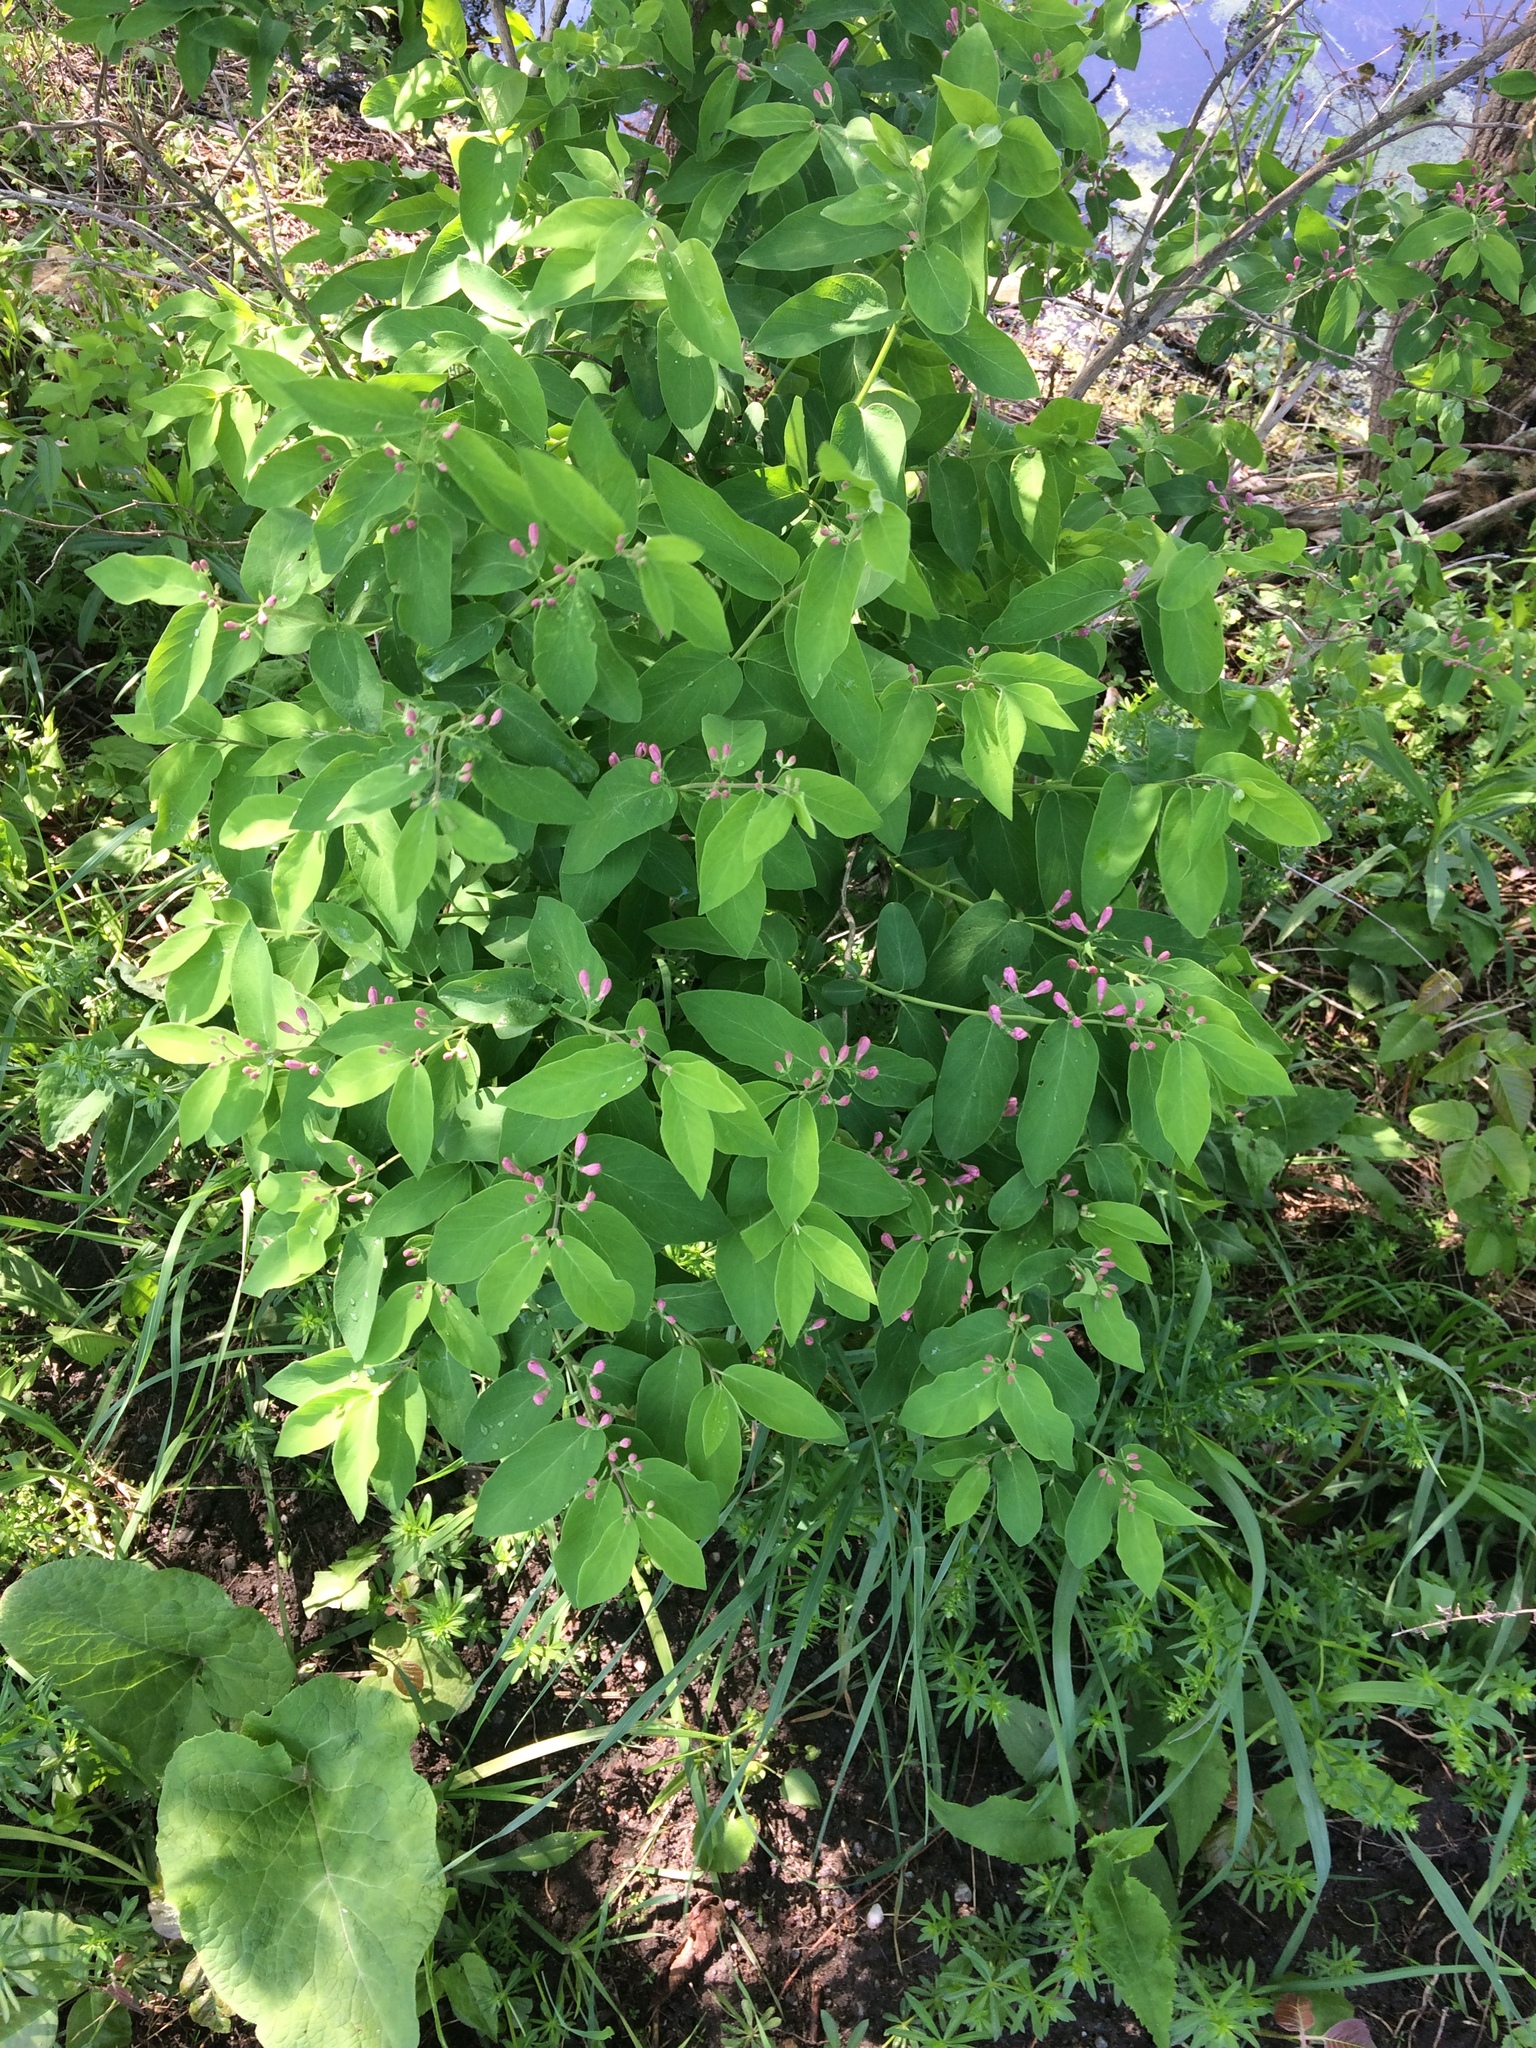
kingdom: Plantae
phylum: Tracheophyta
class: Magnoliopsida
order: Dipsacales
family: Caprifoliaceae
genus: Lonicera
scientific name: Lonicera tatarica
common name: Tatarian honeysuckle
